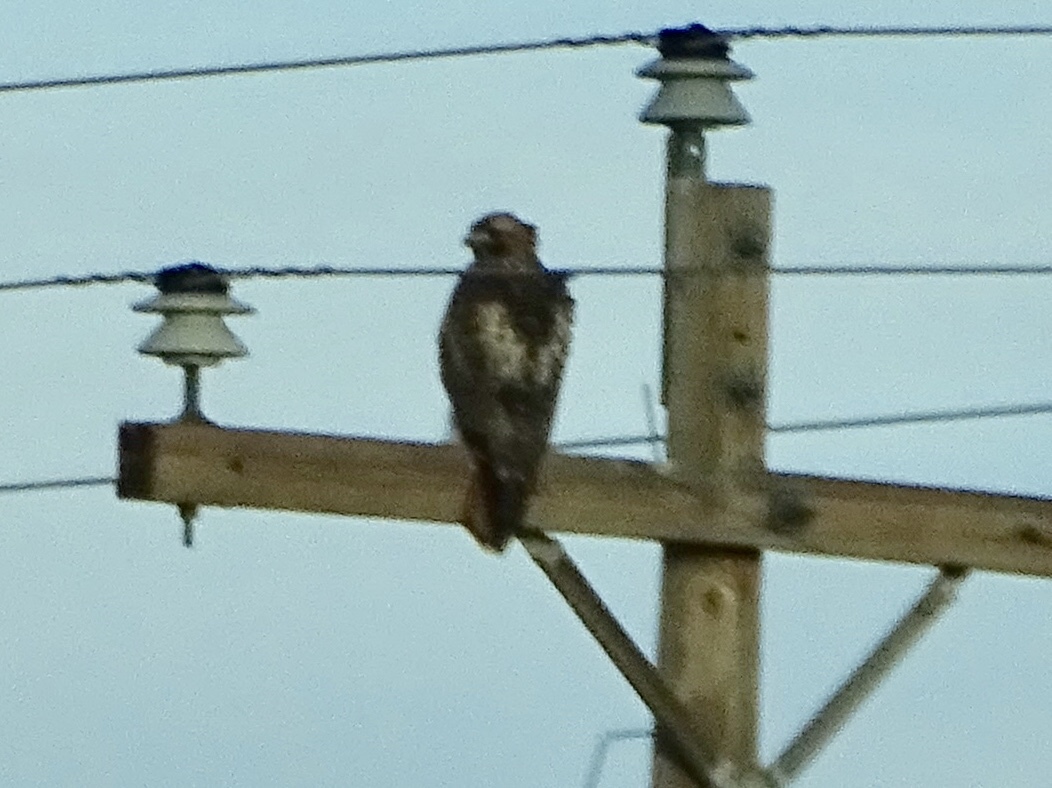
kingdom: Animalia
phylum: Chordata
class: Aves
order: Accipitriformes
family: Accipitridae
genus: Buteo
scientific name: Buteo jamaicensis
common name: Red-tailed hawk
